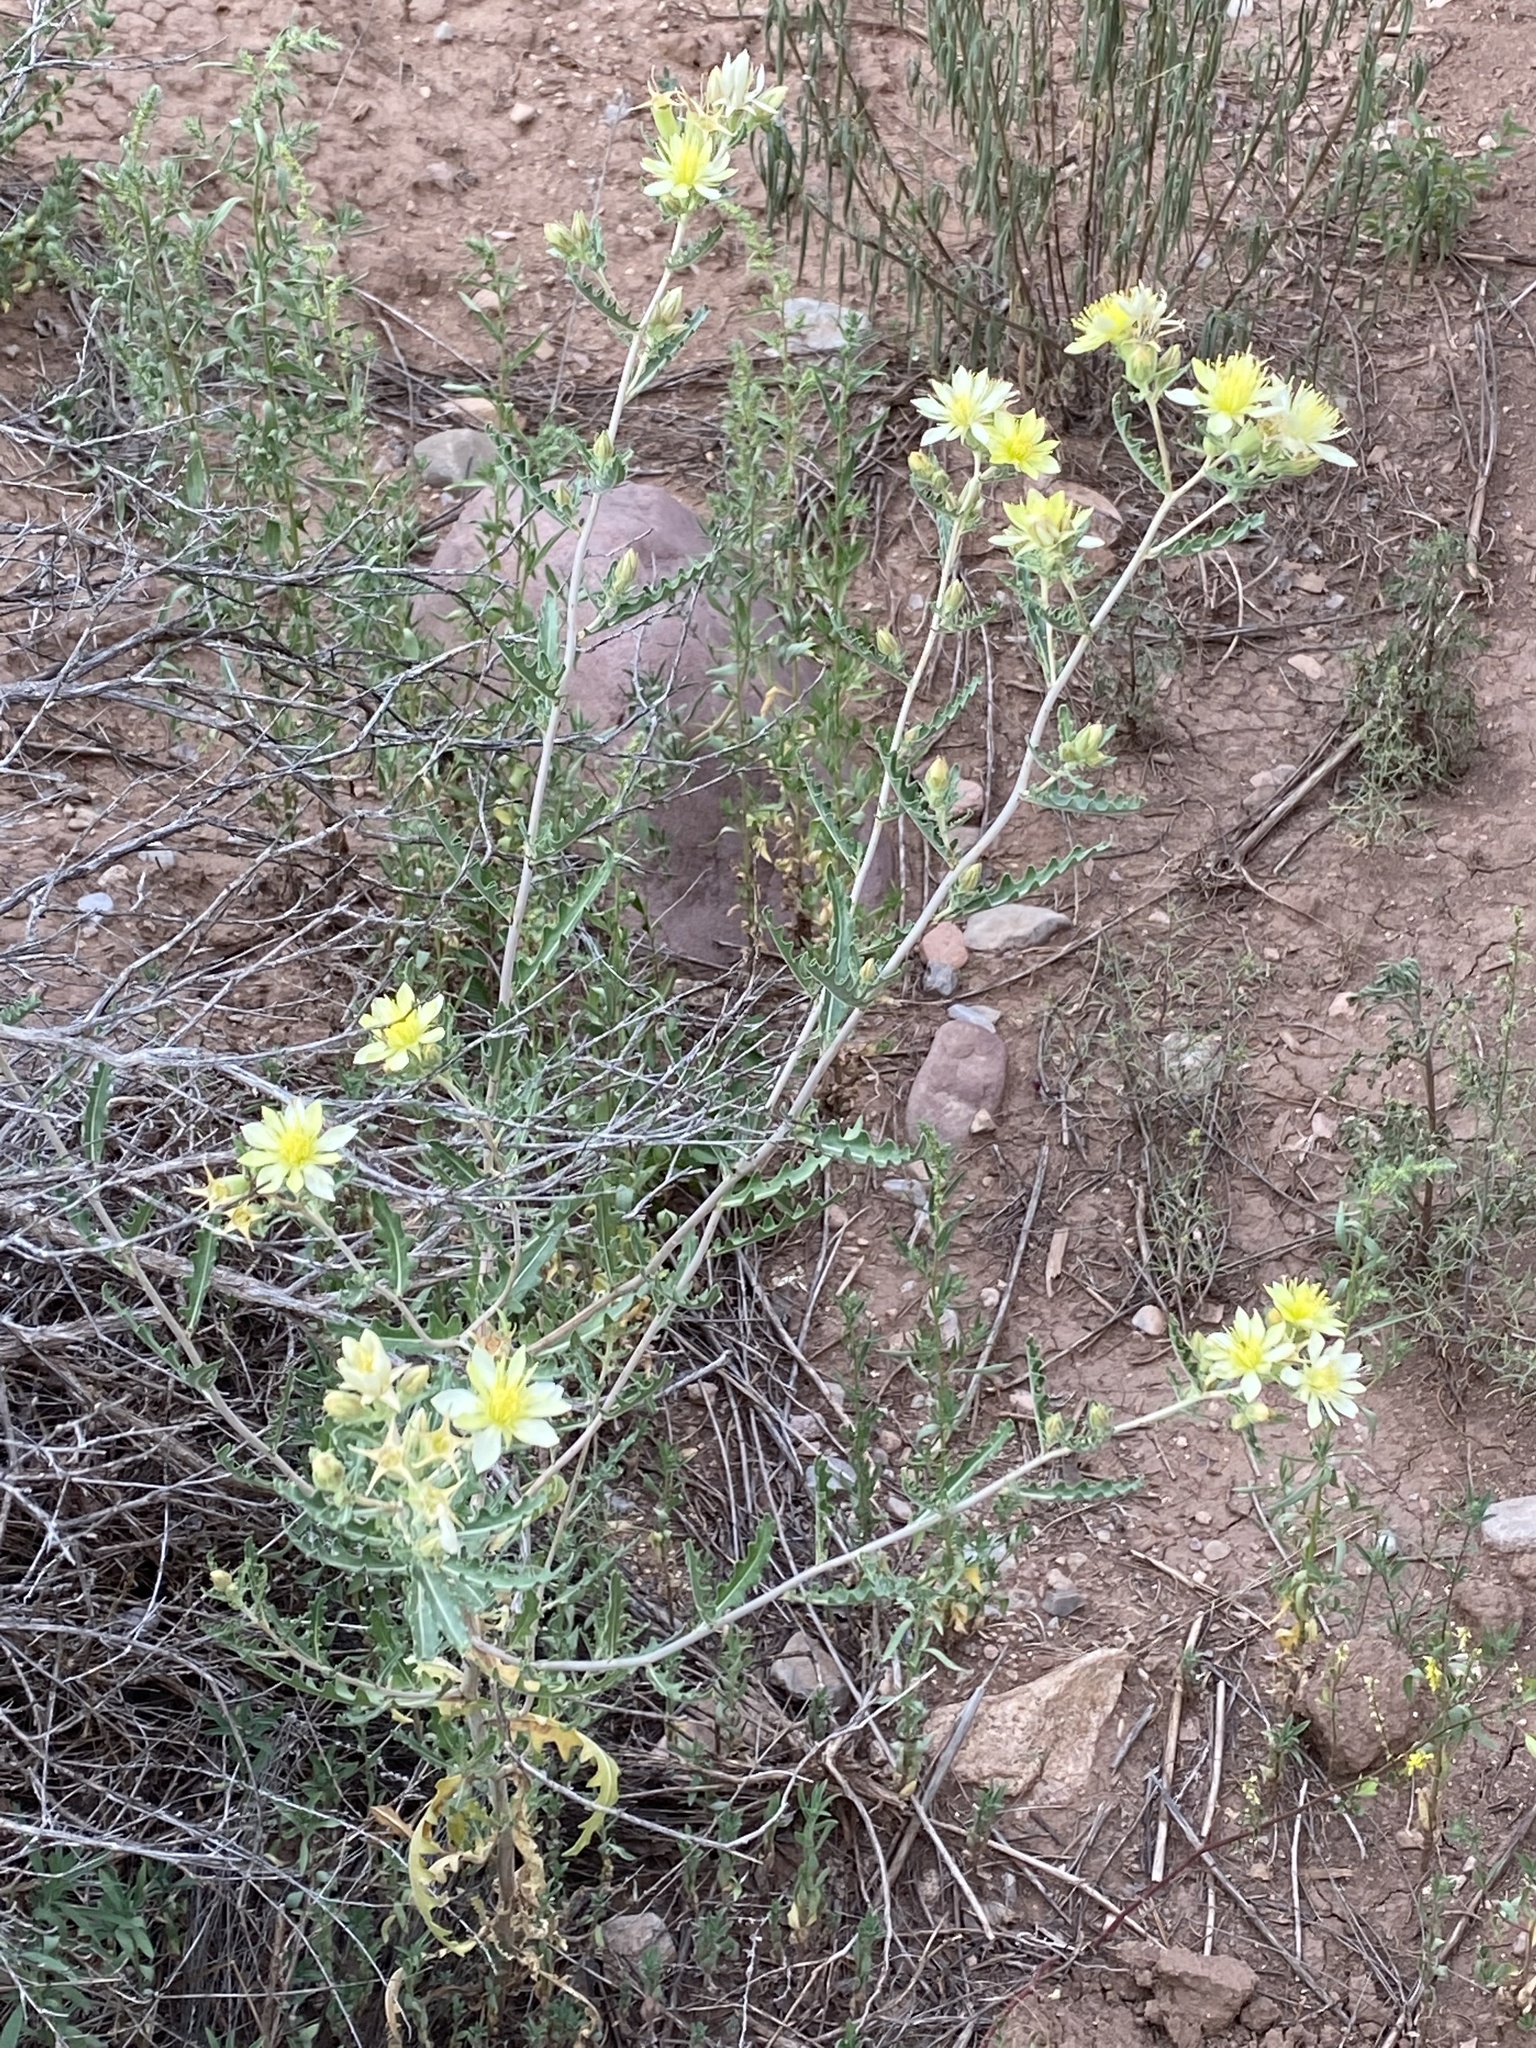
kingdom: Plantae
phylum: Tracheophyta
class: Magnoliopsida
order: Cornales
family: Loasaceae
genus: Mentzelia
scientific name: Mentzelia multiflora
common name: Adonis blazingstar
